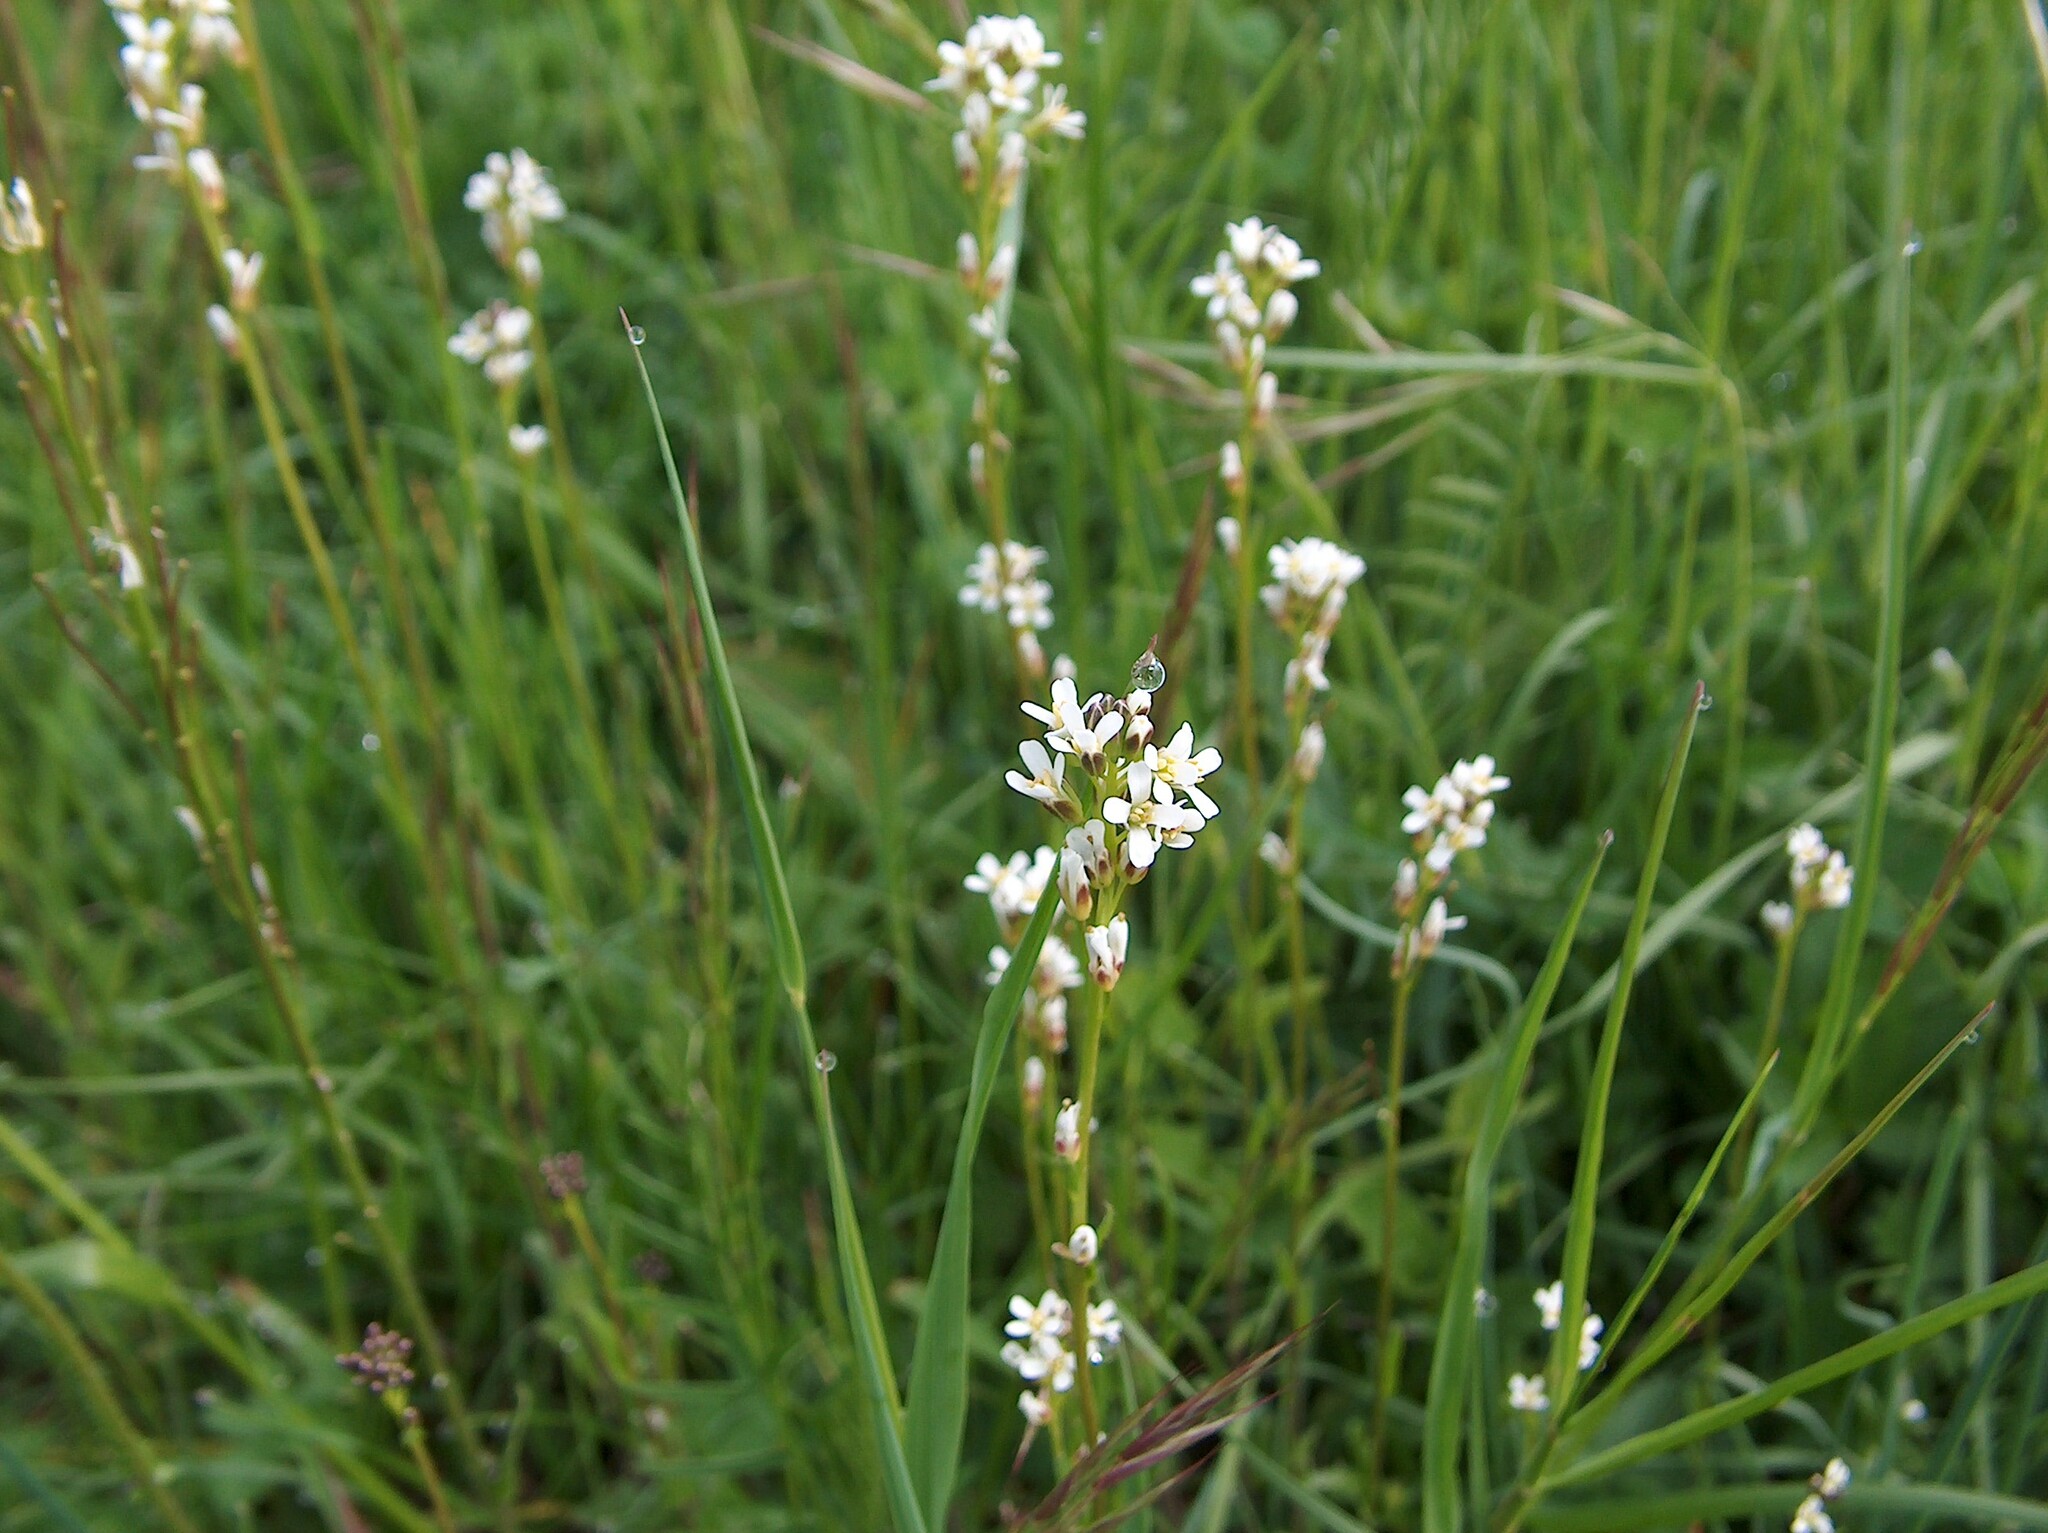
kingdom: Plantae
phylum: Tracheophyta
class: Magnoliopsida
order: Brassicales
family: Brassicaceae
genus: Arabis
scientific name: Arabis hirsuta
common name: Hairy rock-cress
